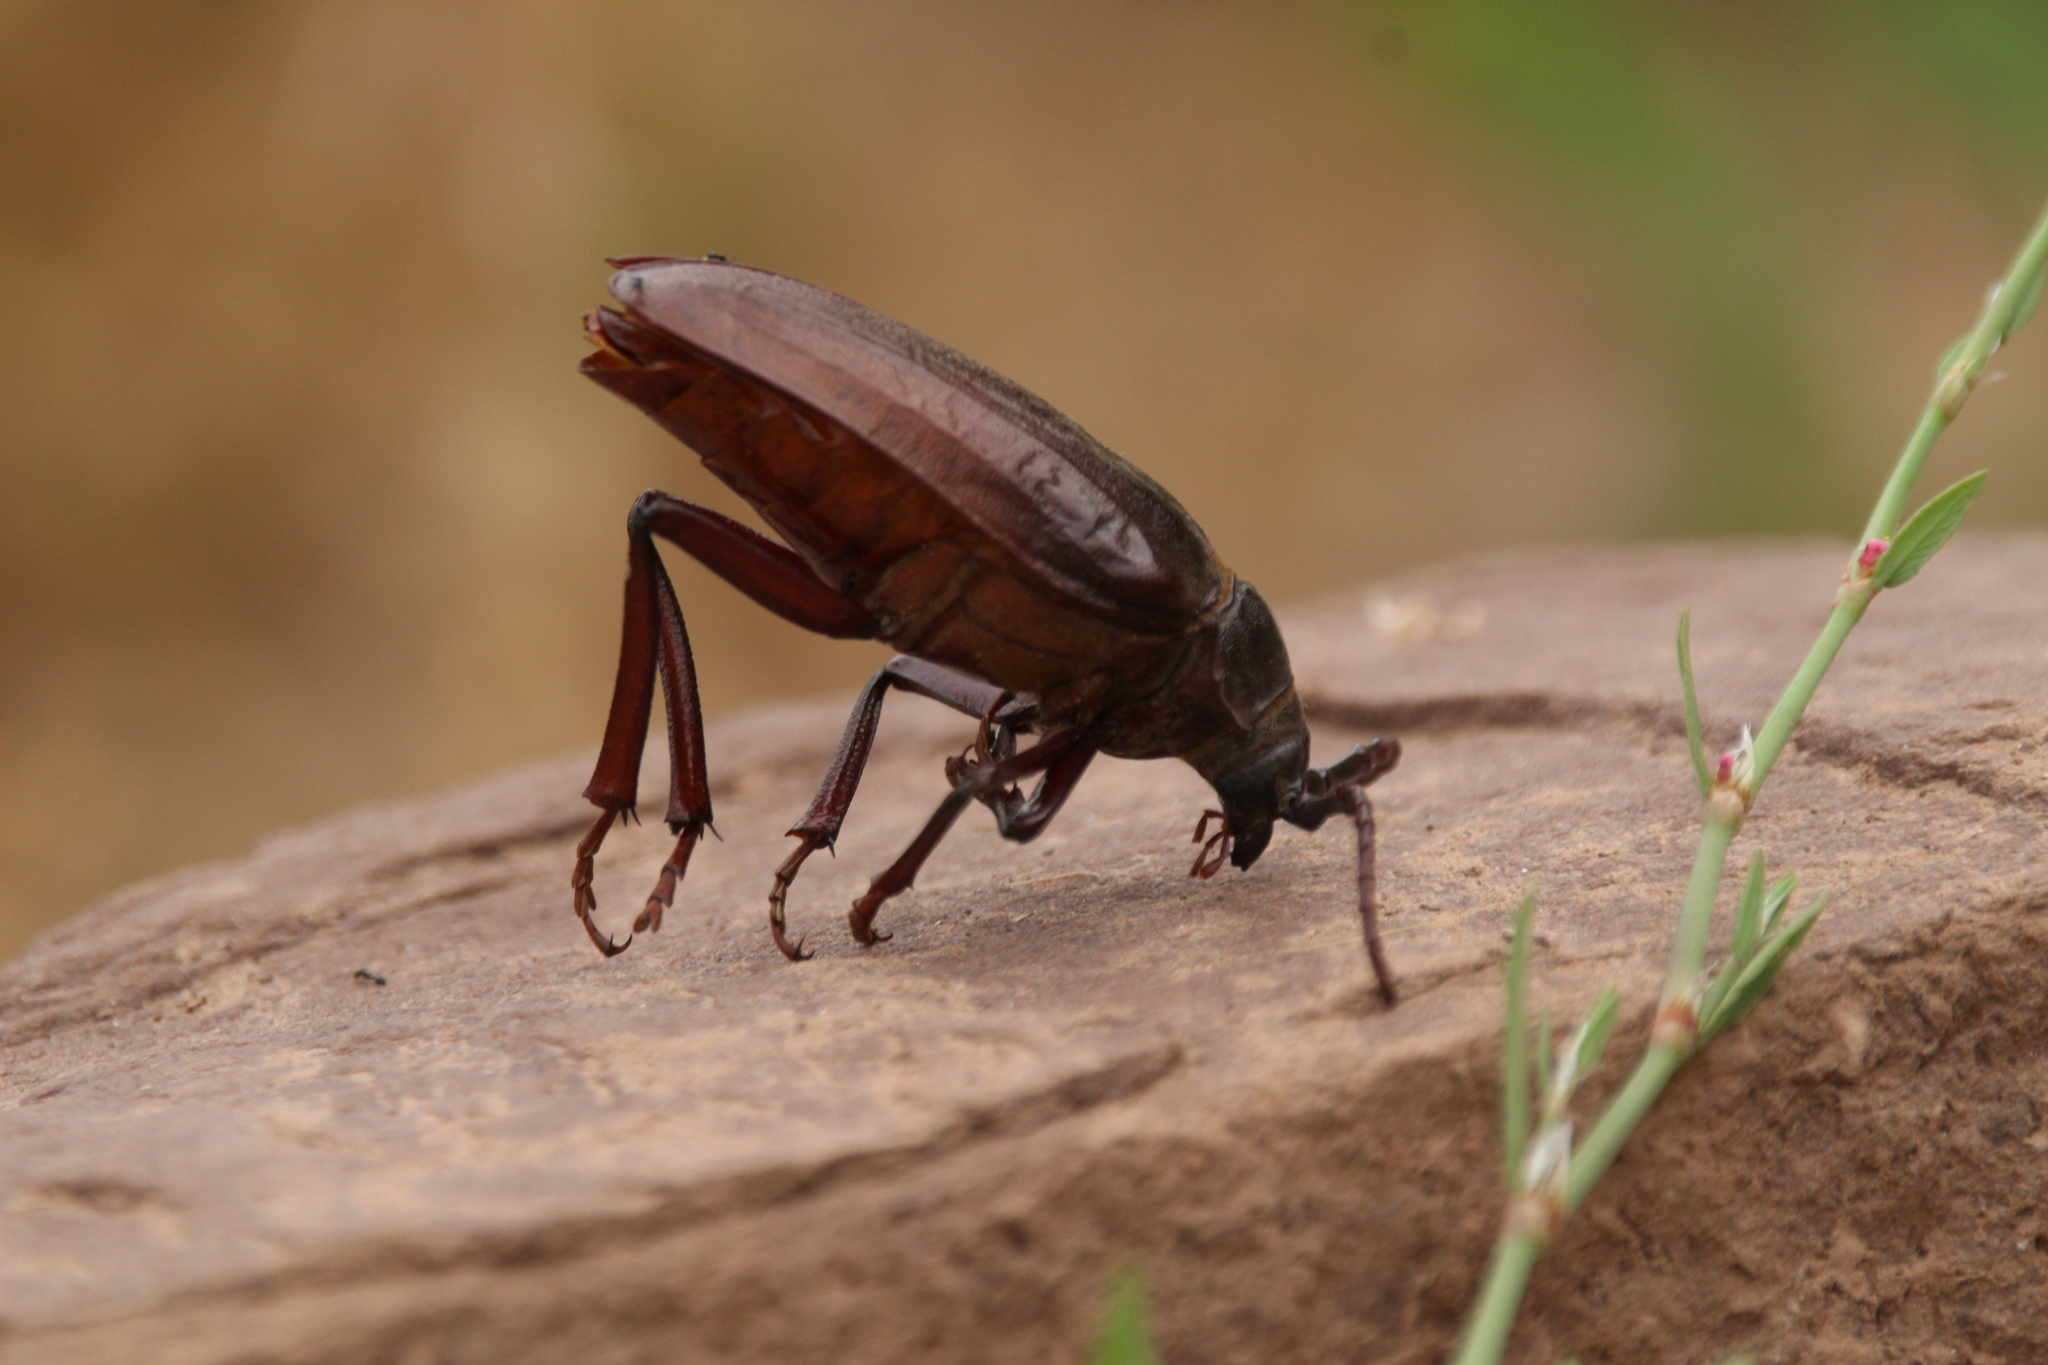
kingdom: Animalia
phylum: Arthropoda
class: Insecta
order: Coleoptera
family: Cerambycidae
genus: Prionus
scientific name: Prionus californicus
